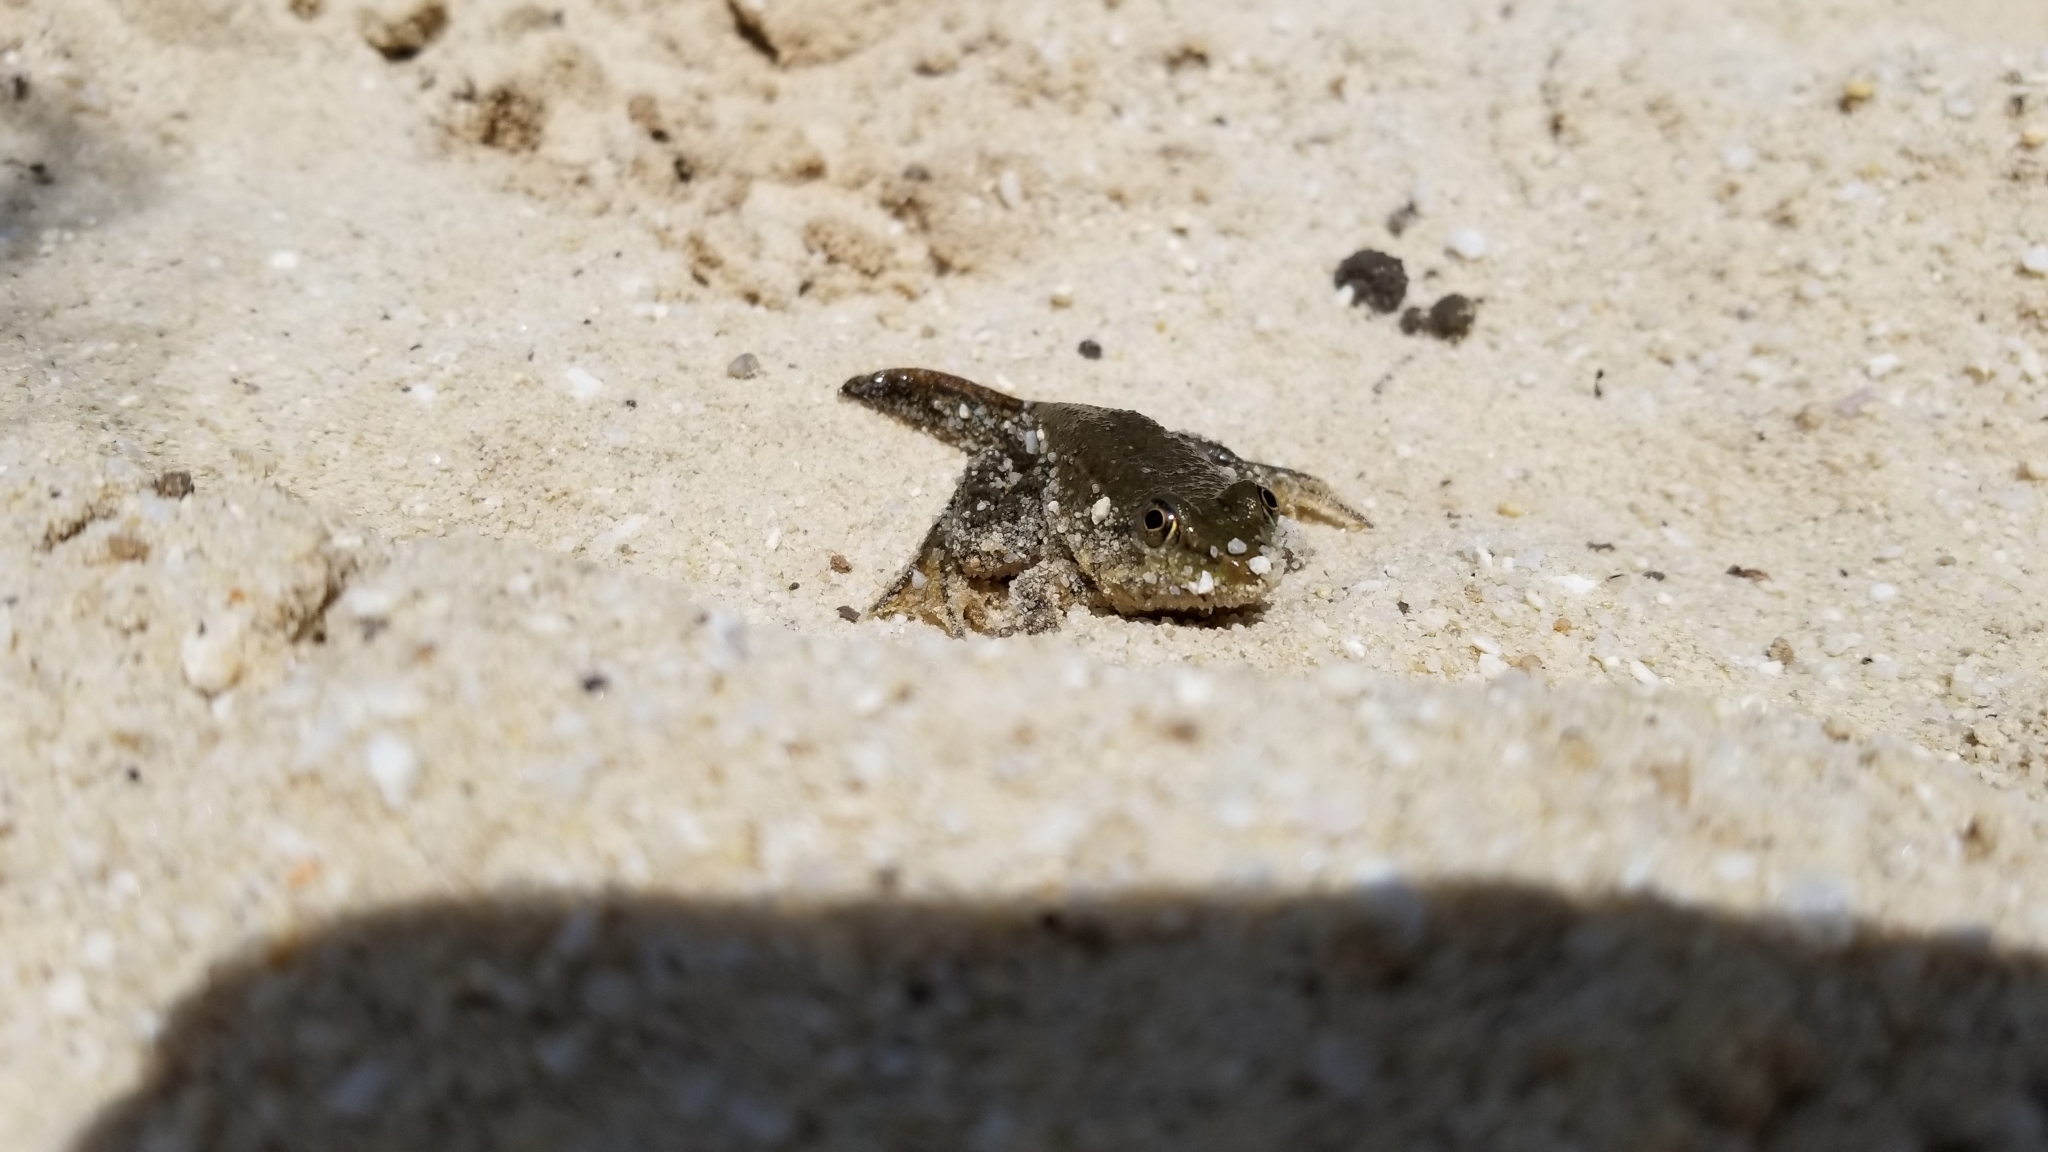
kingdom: Animalia
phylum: Chordata
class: Amphibia
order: Anura
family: Ranidae
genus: Lithobates
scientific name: Lithobates clamitans
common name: Green frog
